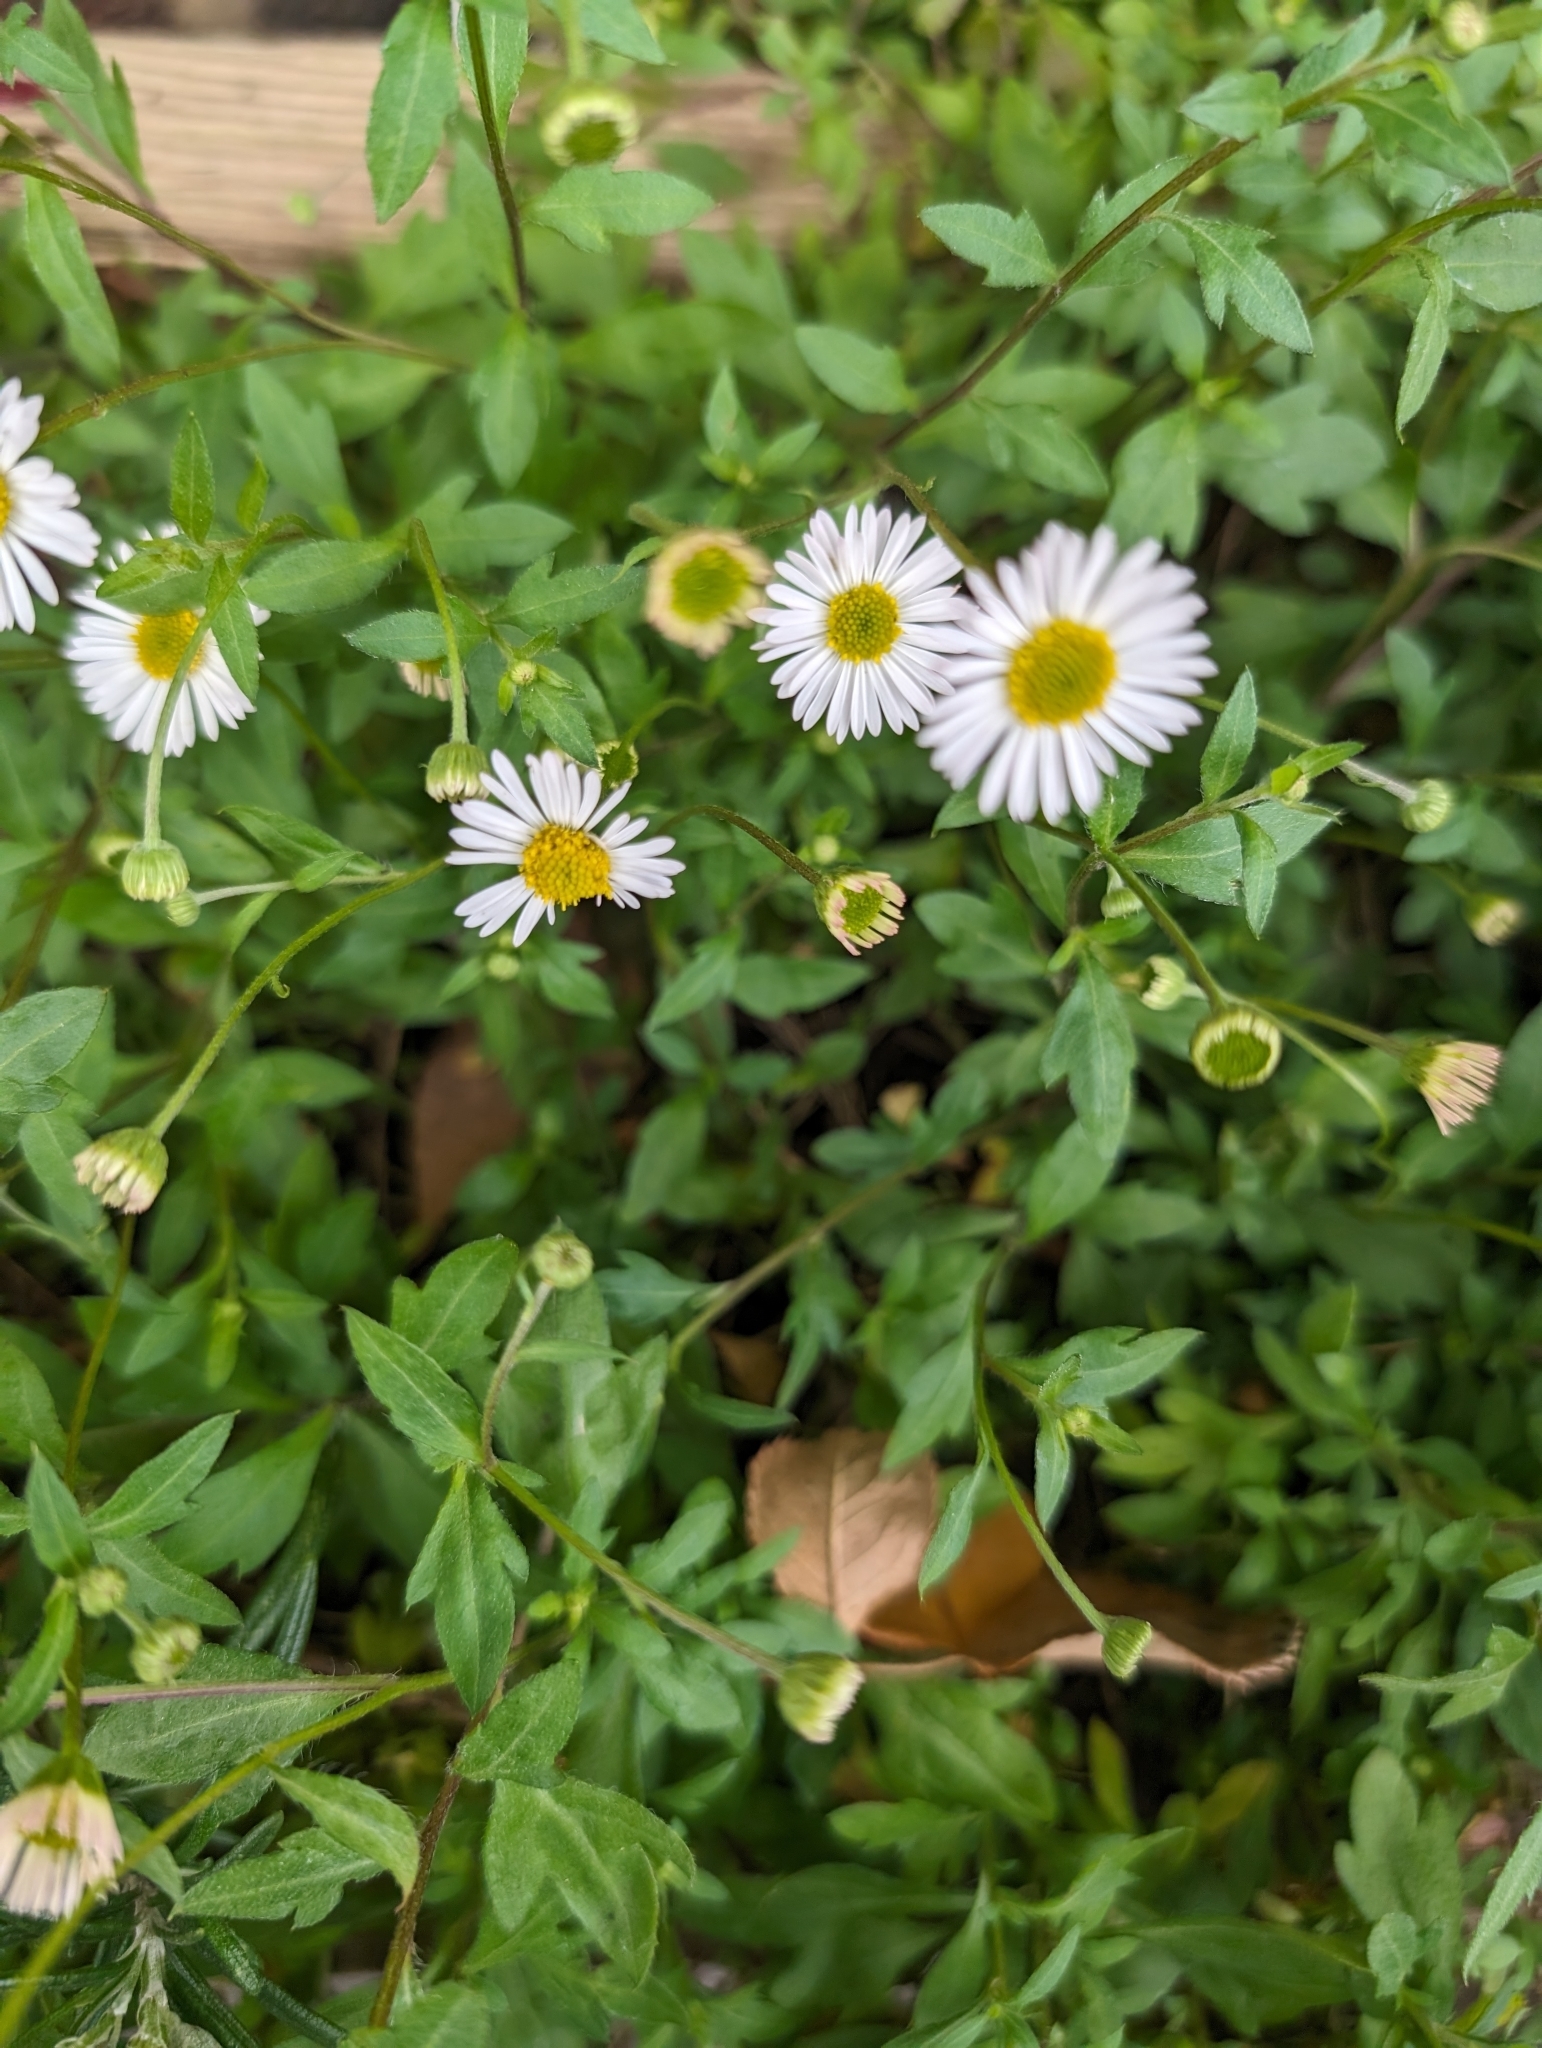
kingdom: Plantae
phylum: Tracheophyta
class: Magnoliopsida
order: Asterales
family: Asteraceae
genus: Erigeron
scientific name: Erigeron karvinskianus
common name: Mexican fleabane
